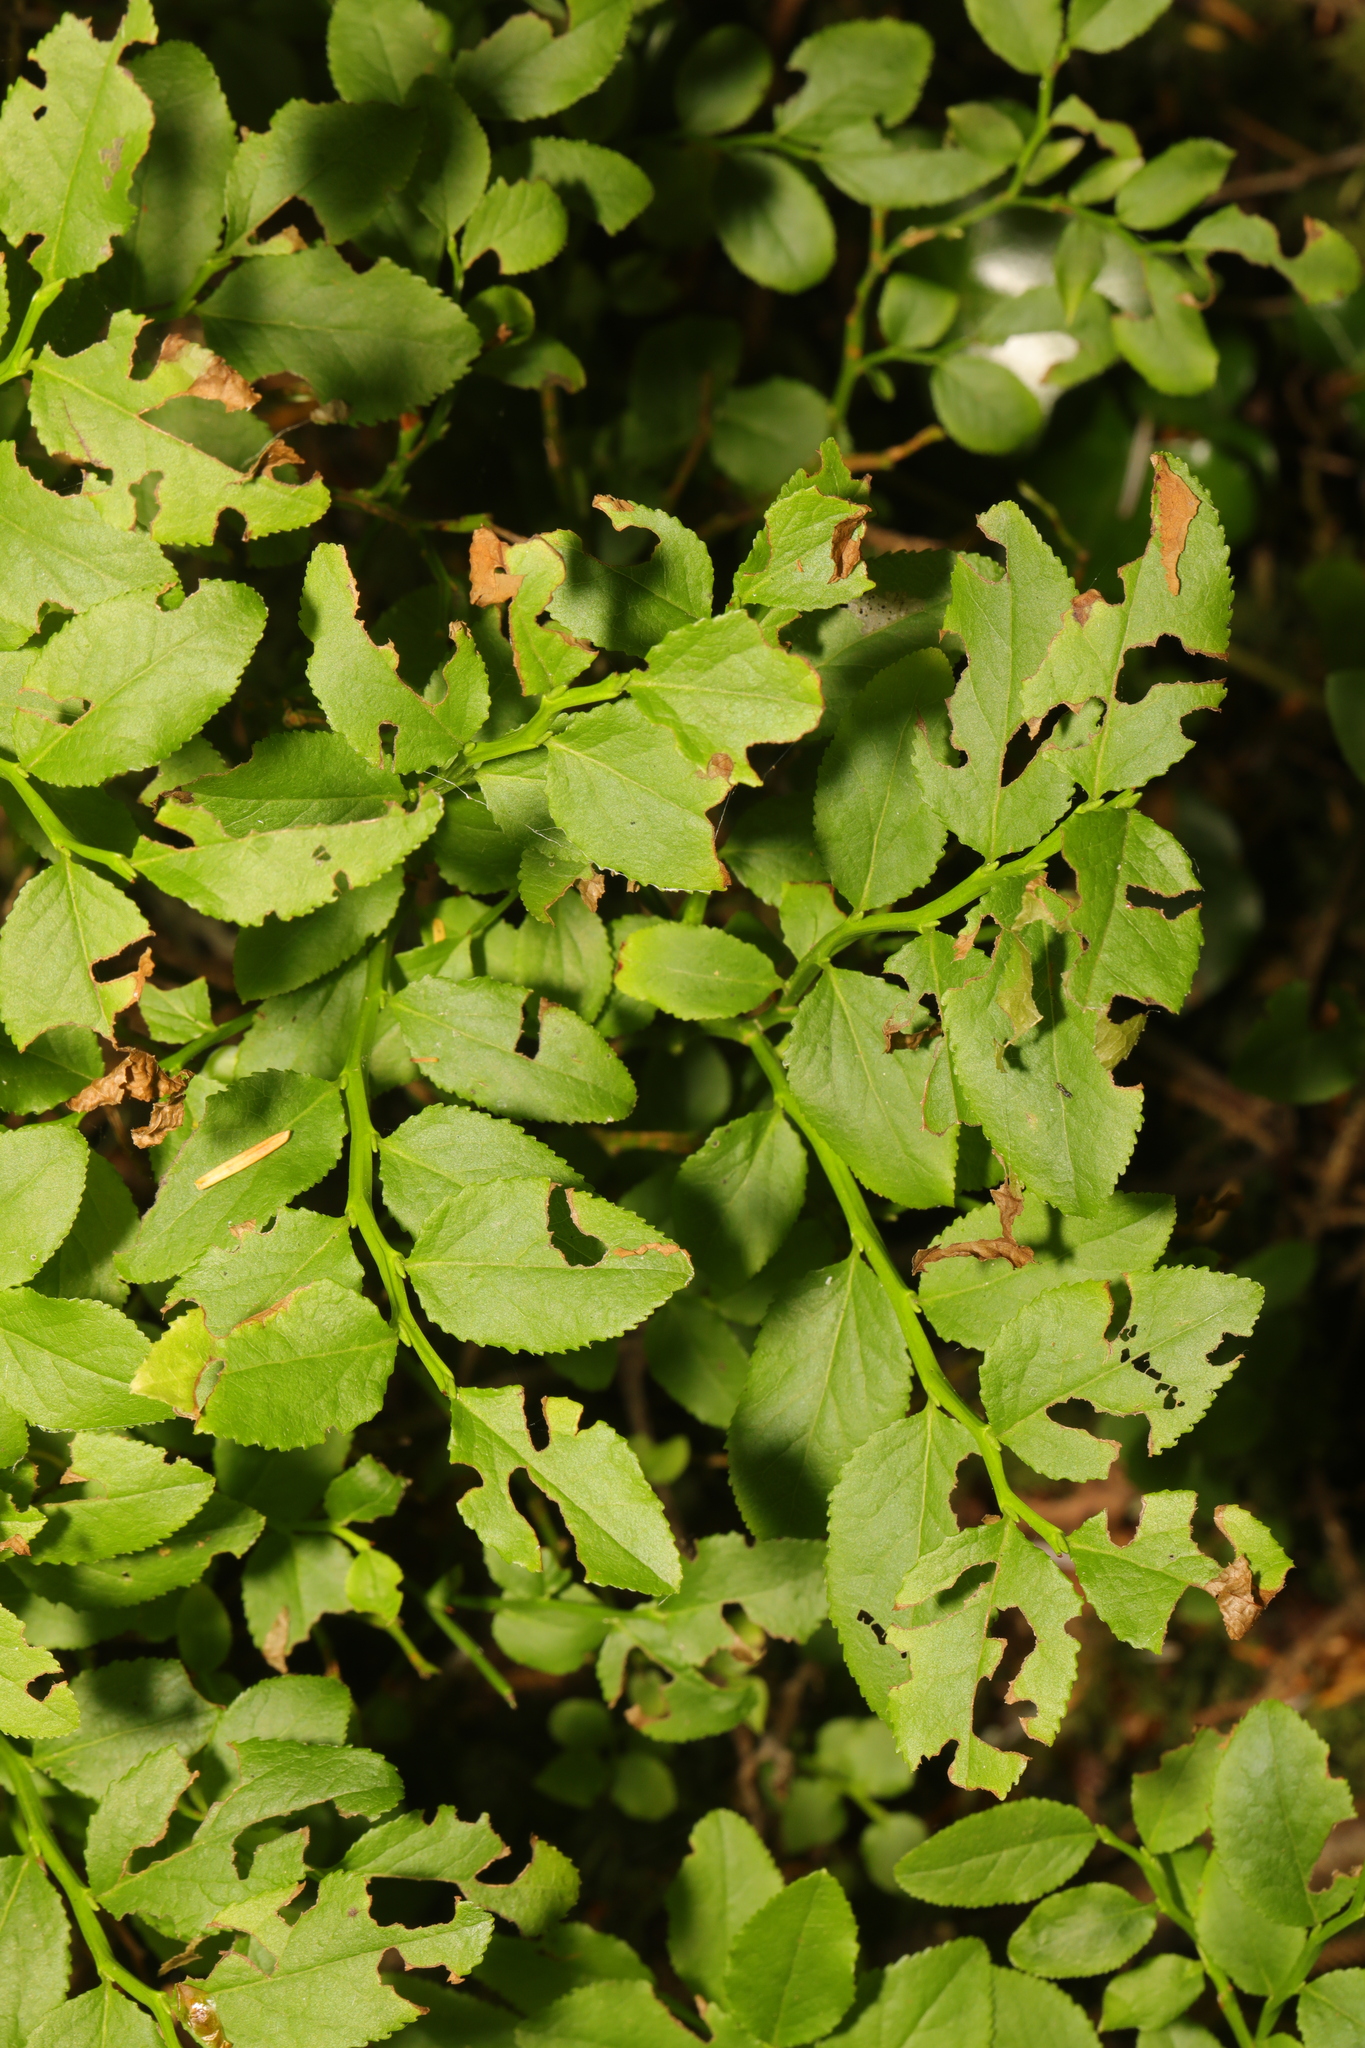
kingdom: Plantae
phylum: Tracheophyta
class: Magnoliopsida
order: Ericales
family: Ericaceae
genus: Vaccinium
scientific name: Vaccinium myrtillus
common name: Bilberry
